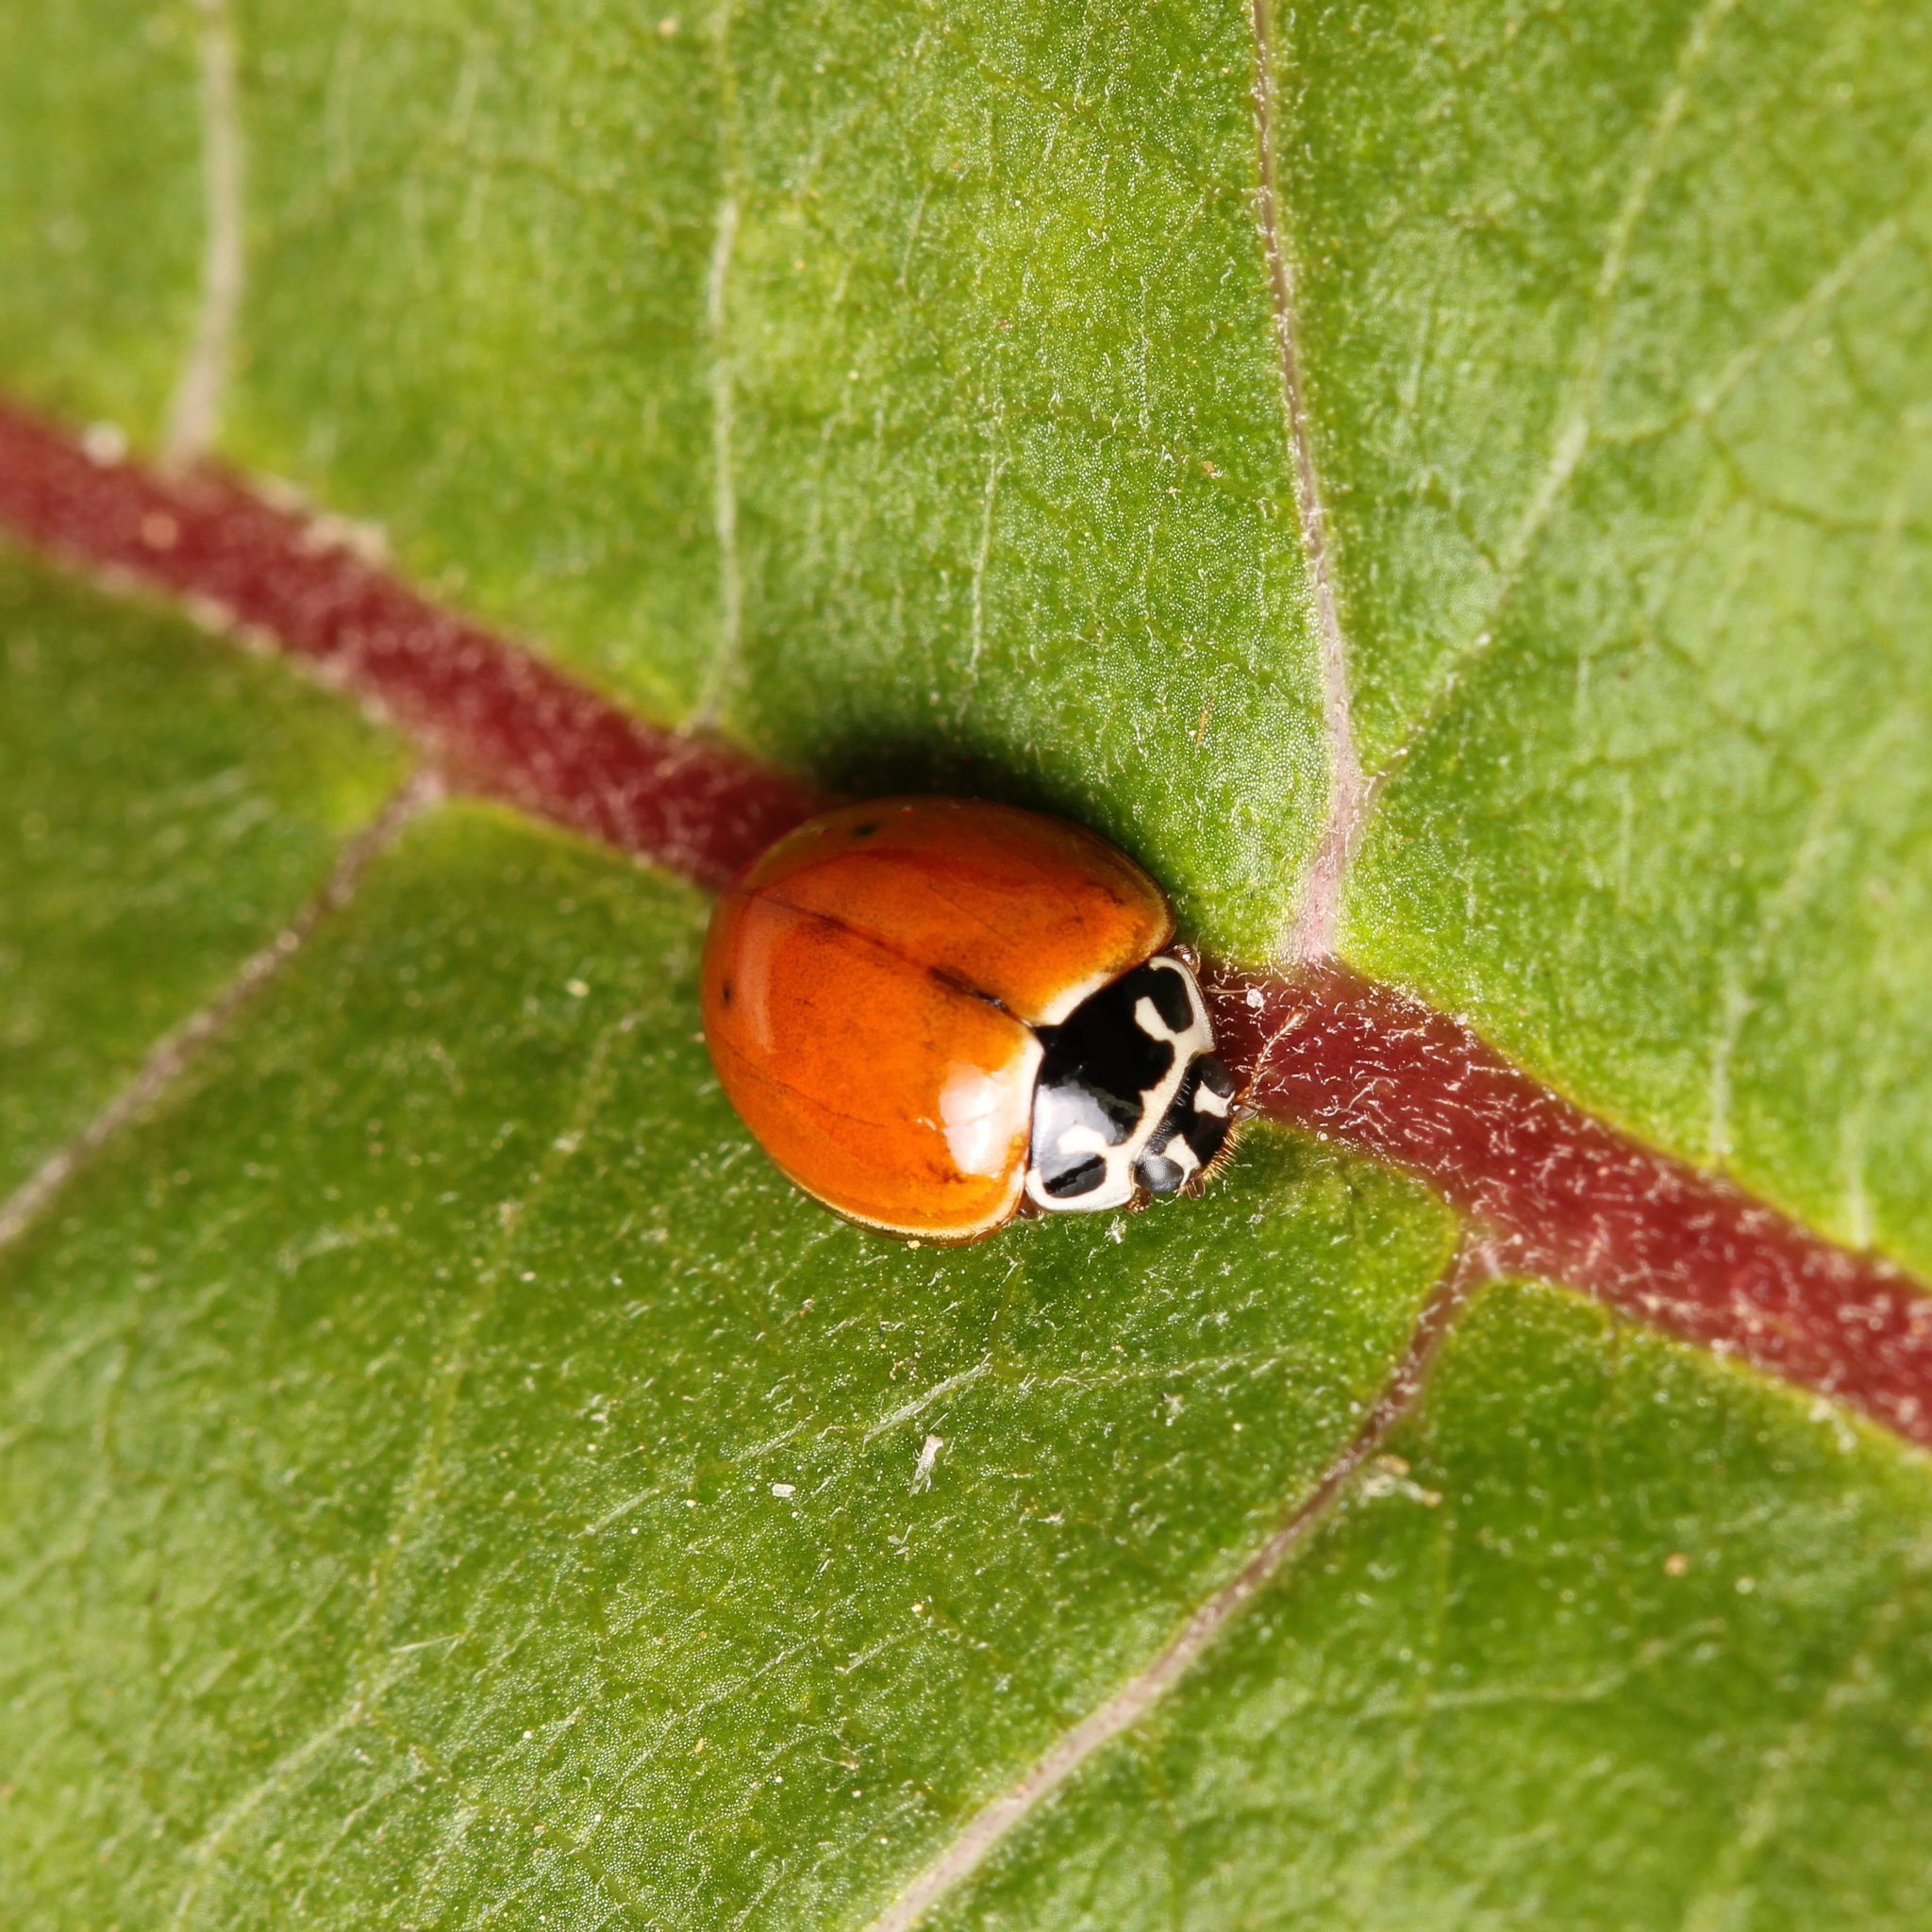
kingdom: Animalia
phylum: Arthropoda
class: Insecta
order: Coleoptera
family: Coccinellidae
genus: Cycloneda
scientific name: Cycloneda munda
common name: Polished lady beetle
